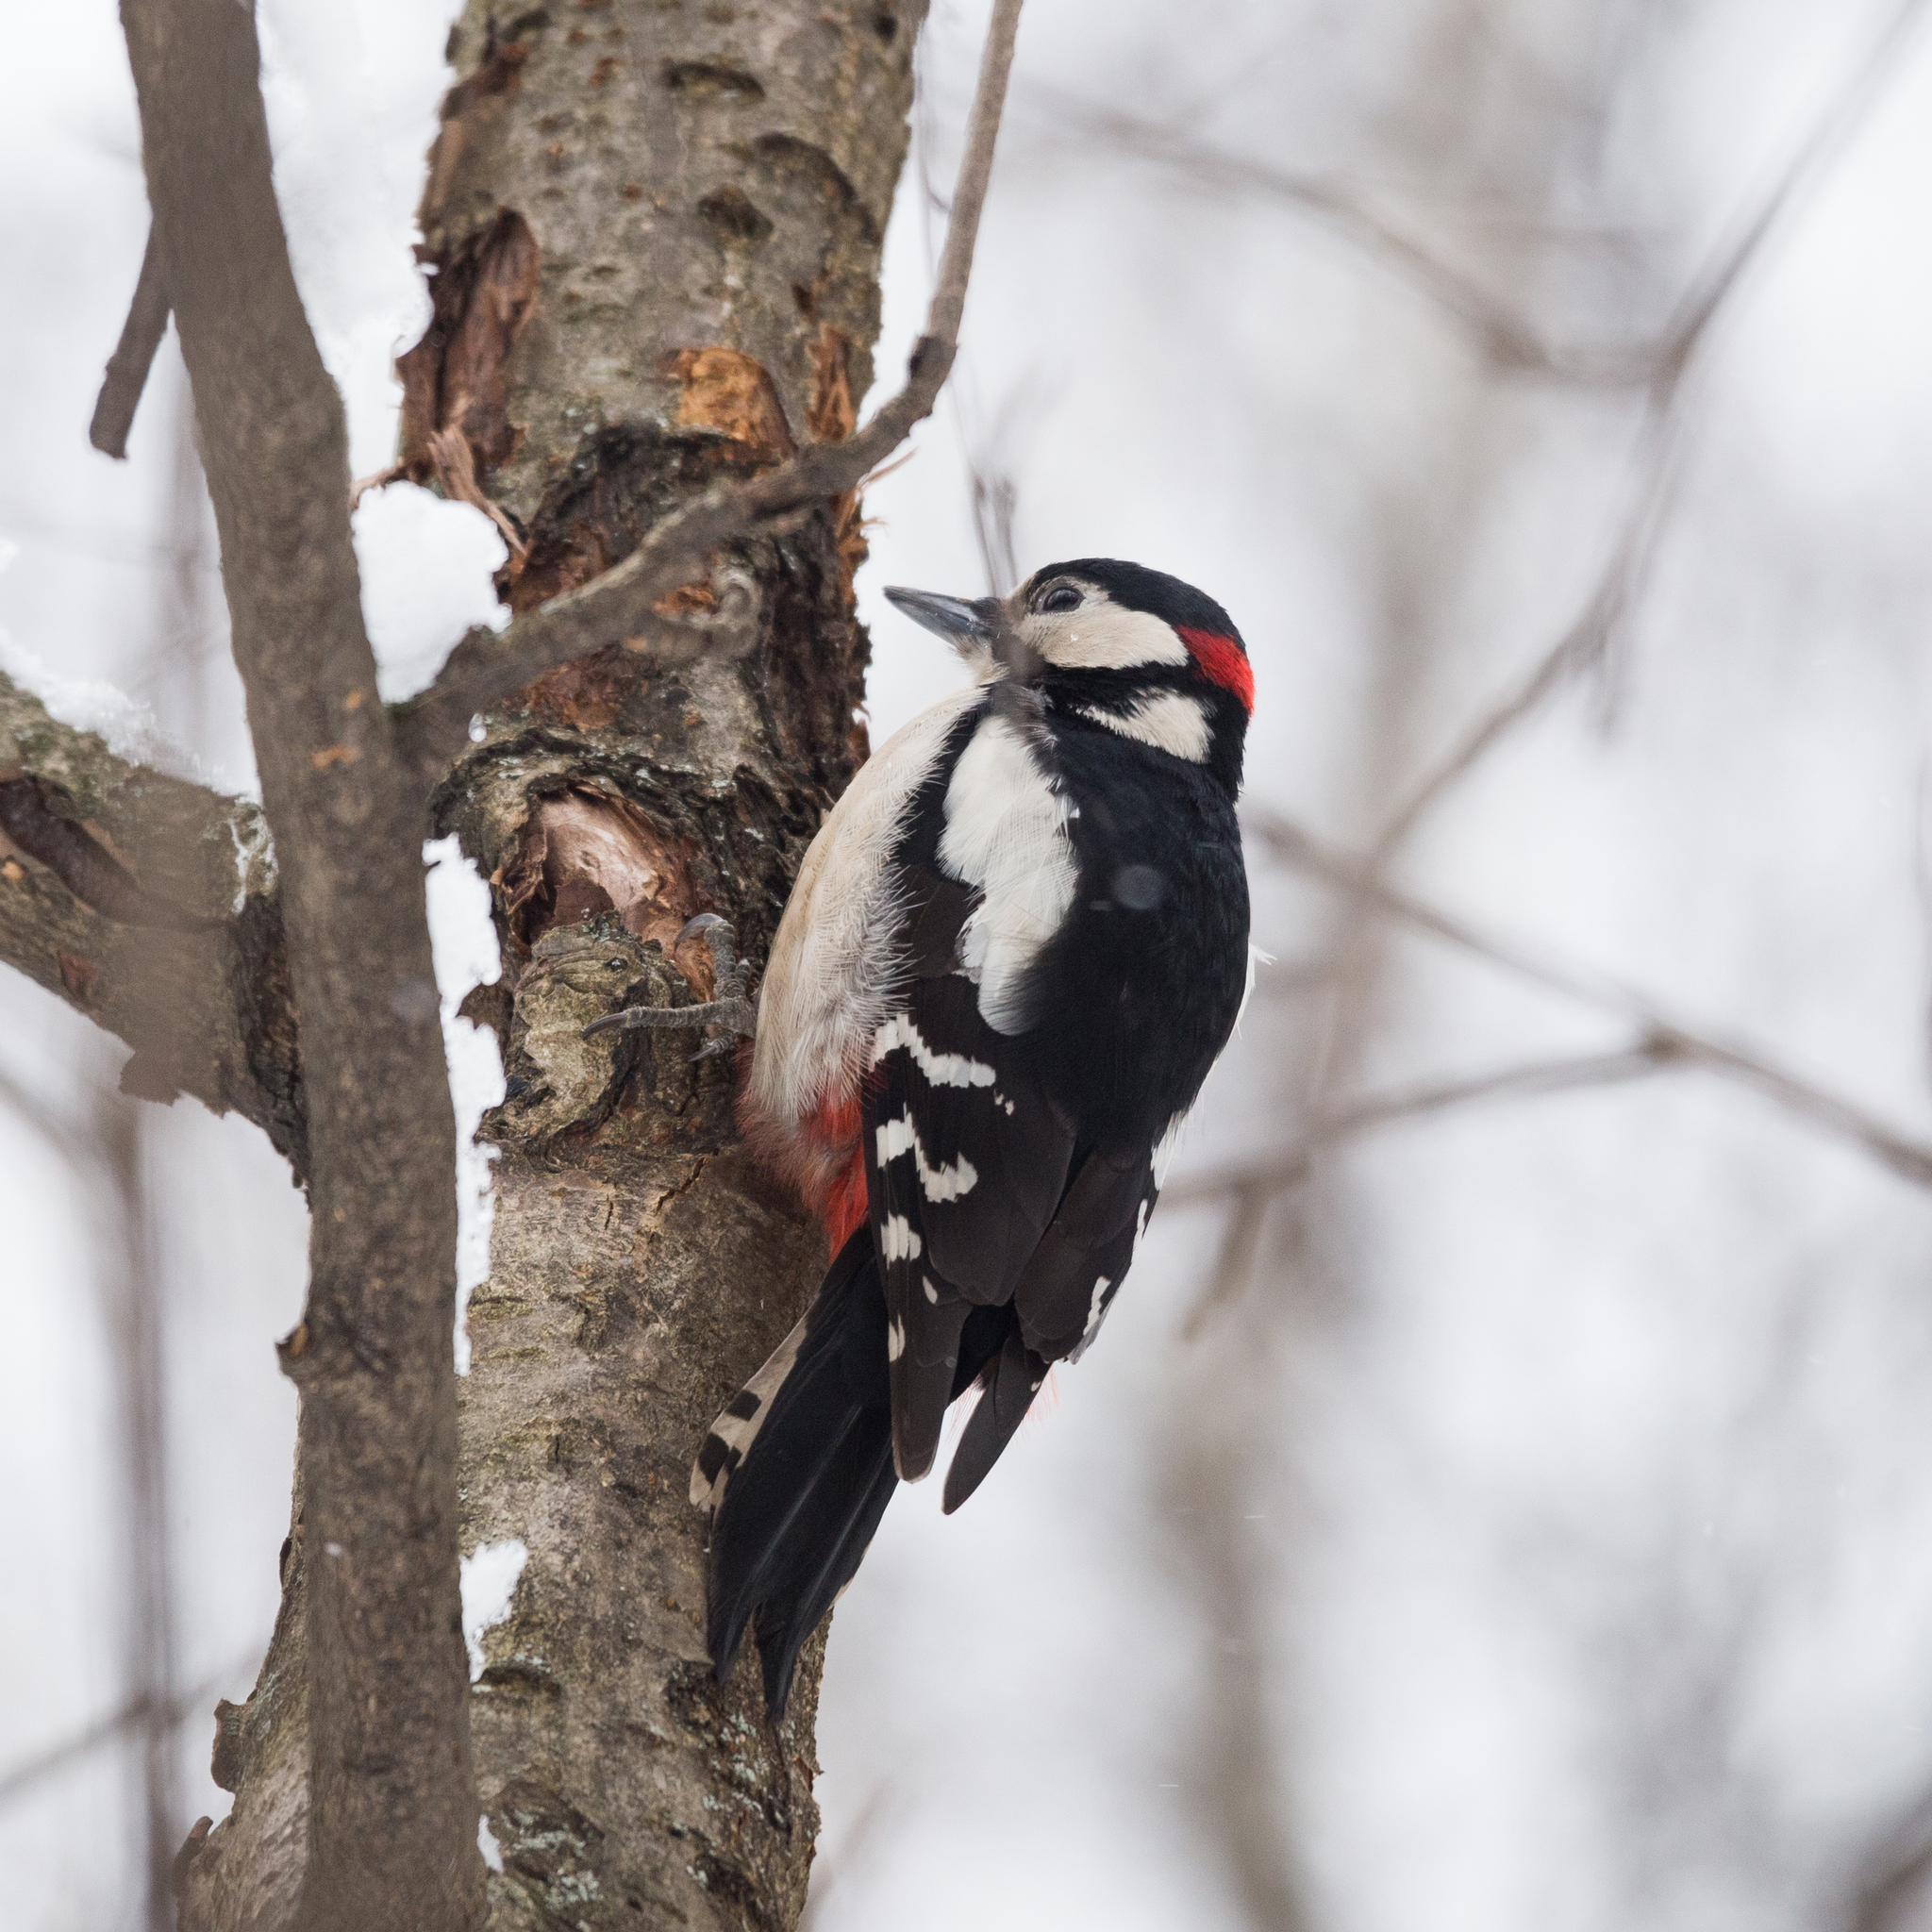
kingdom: Animalia
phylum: Chordata
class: Aves
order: Piciformes
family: Picidae
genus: Dendrocopos
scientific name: Dendrocopos major
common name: Great spotted woodpecker
